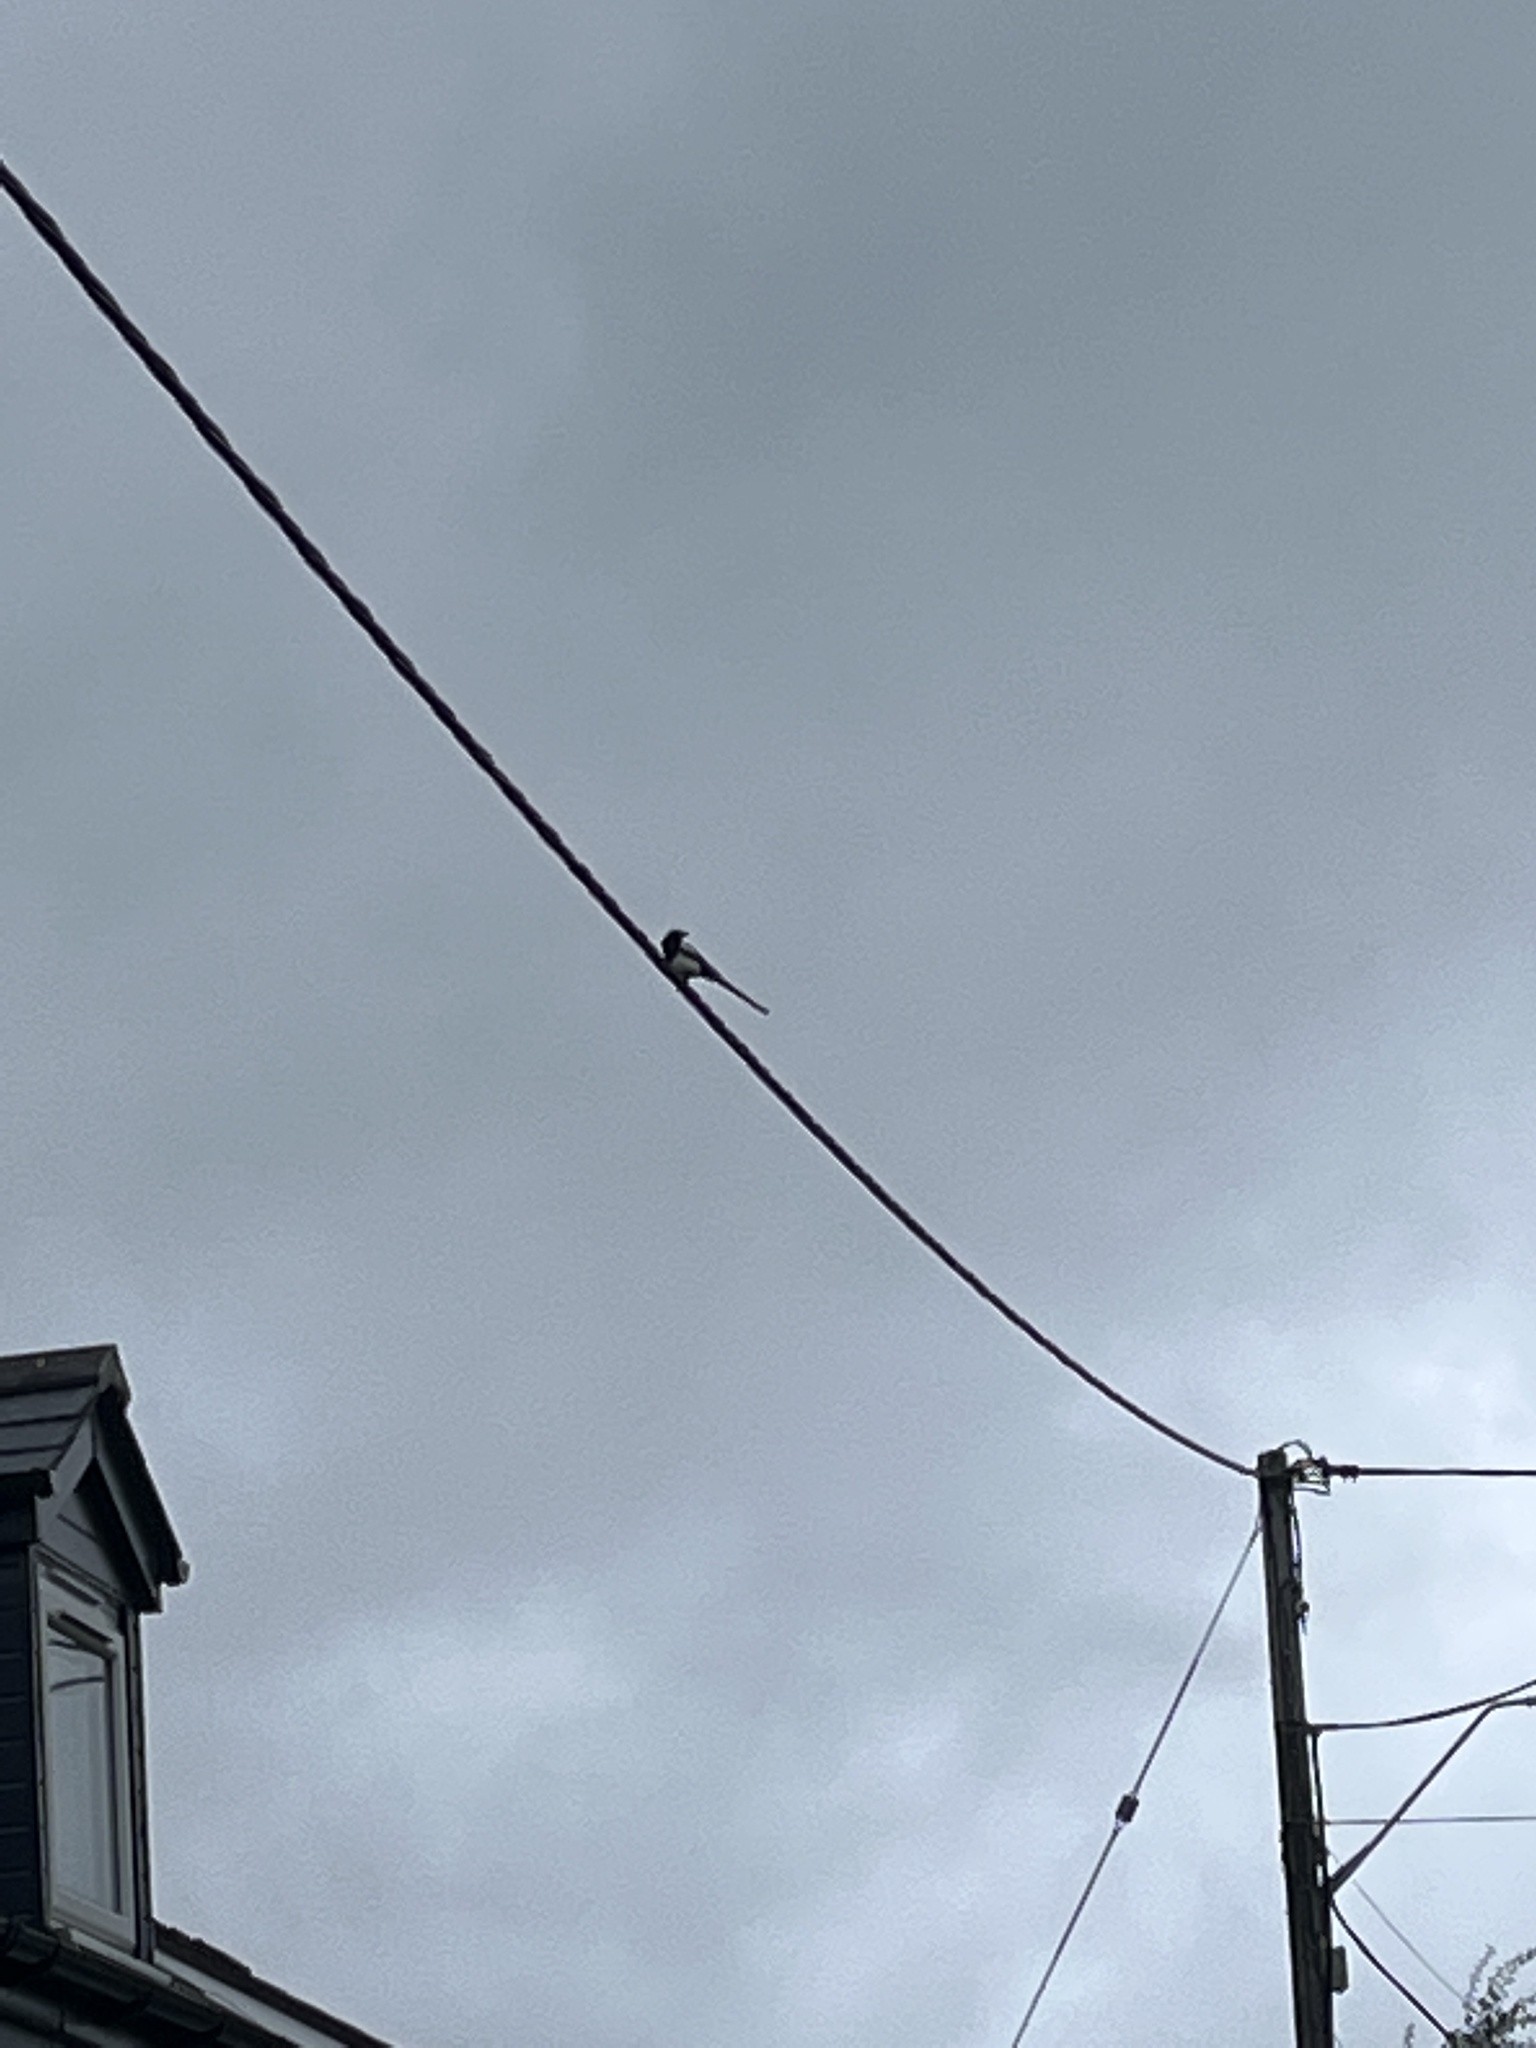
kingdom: Animalia
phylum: Chordata
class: Aves
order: Passeriformes
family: Corvidae
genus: Pica
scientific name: Pica pica
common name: Eurasian magpie
